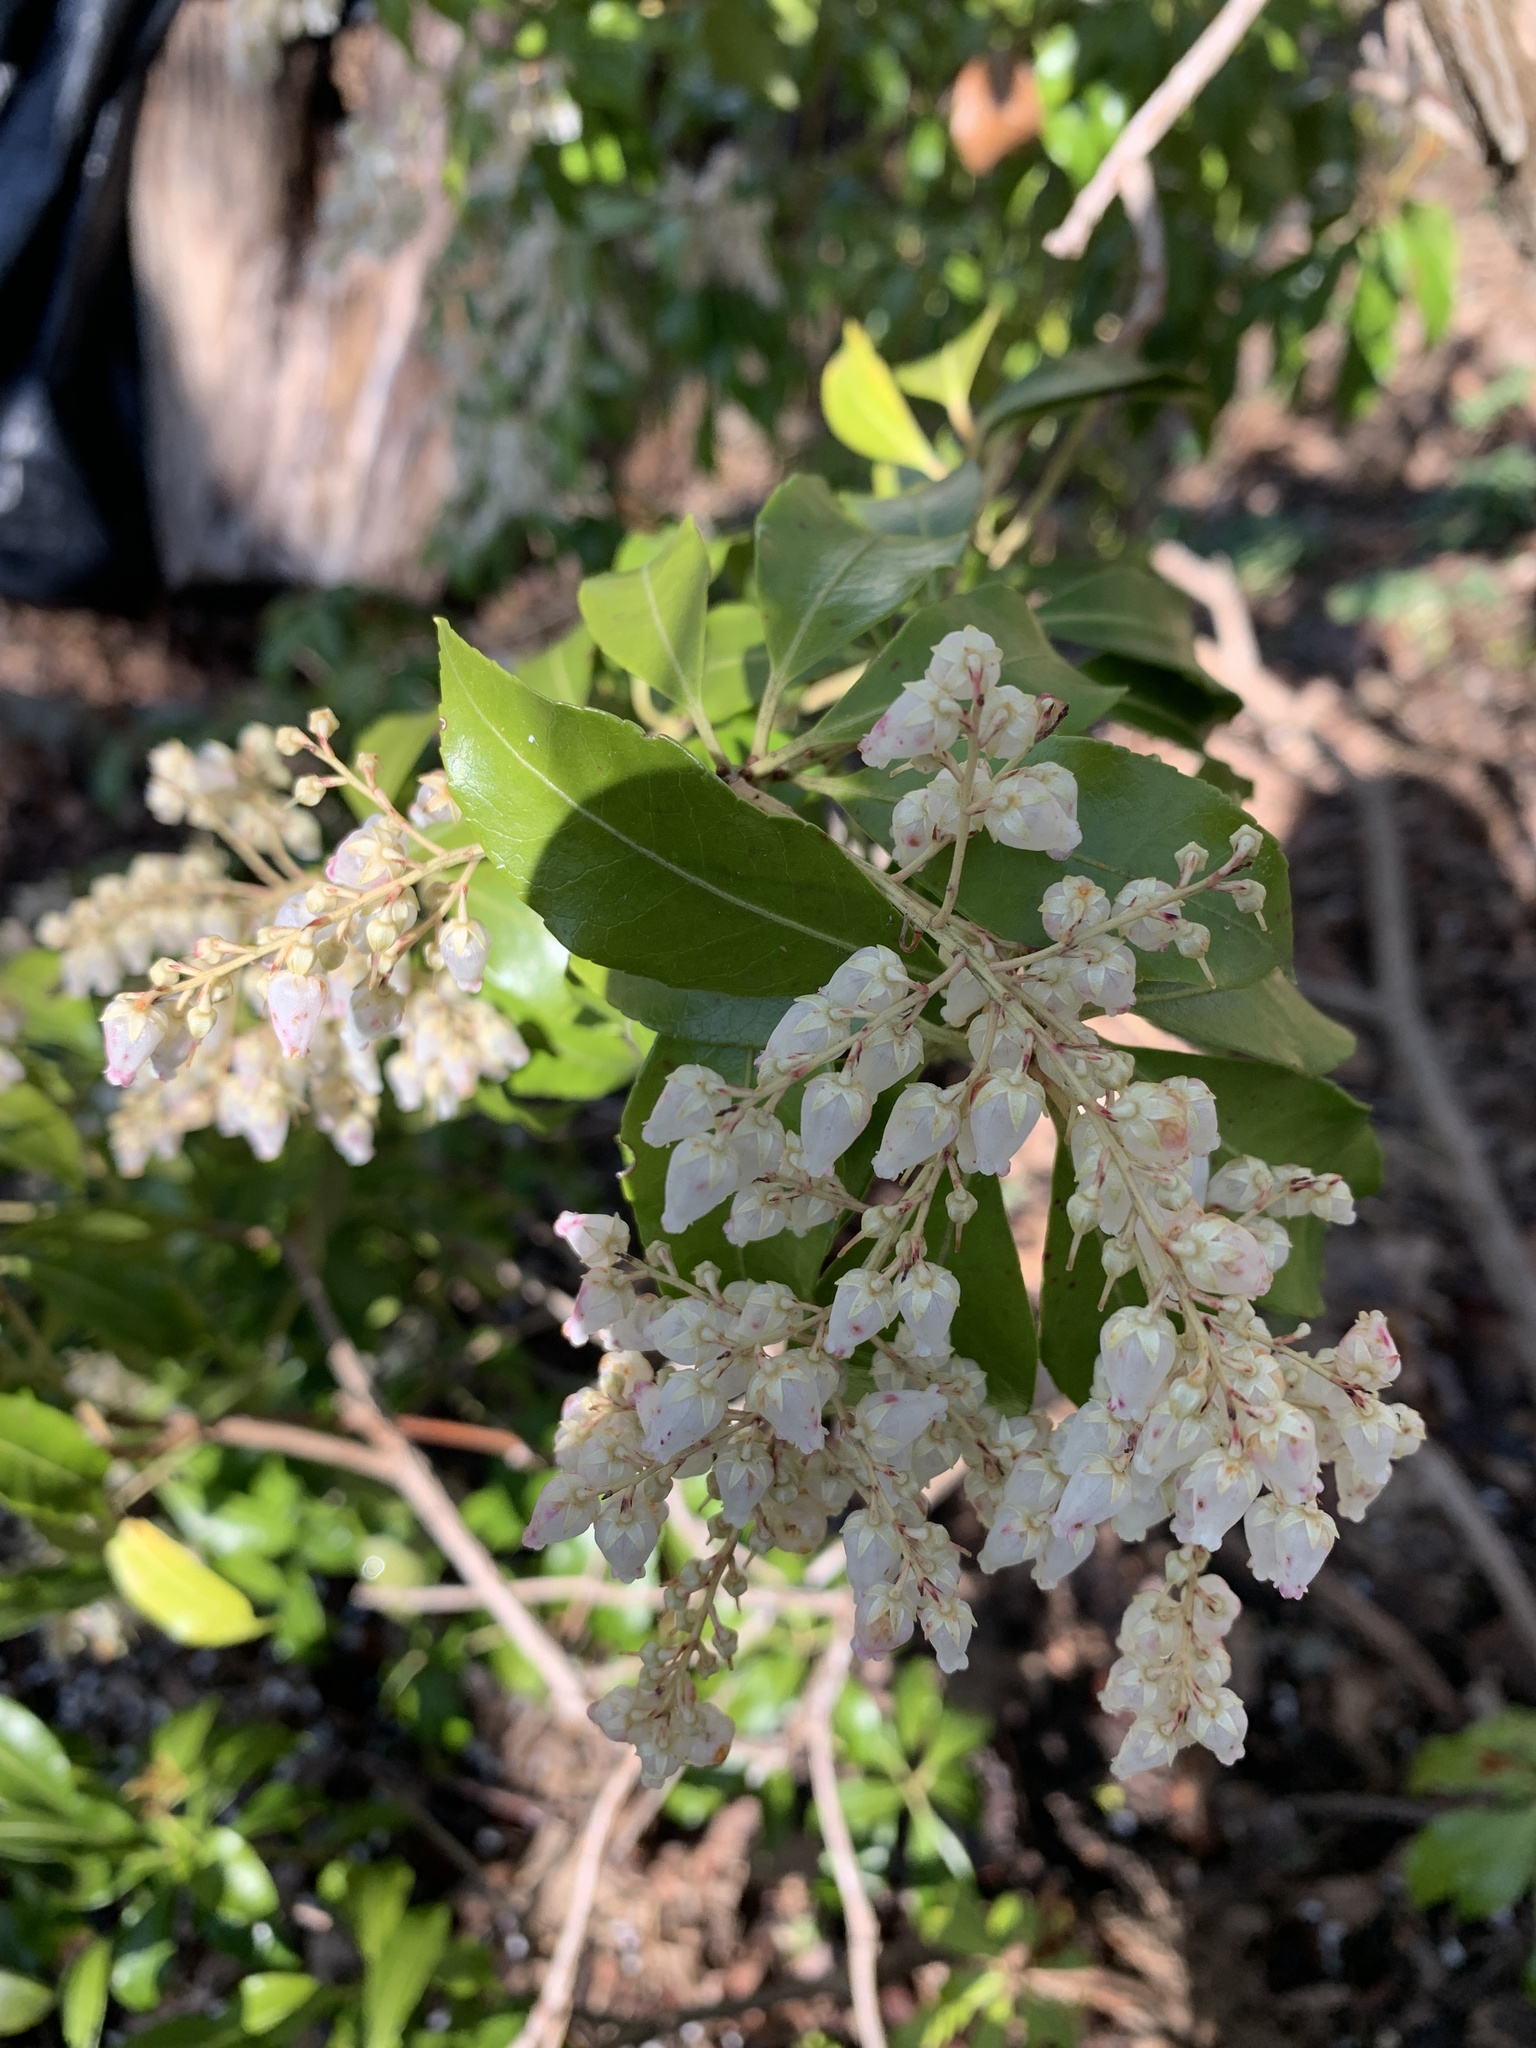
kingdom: Plantae
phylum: Tracheophyta
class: Magnoliopsida
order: Ericales
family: Ericaceae
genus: Pieris
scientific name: Pieris japonica
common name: Japanese pieris
